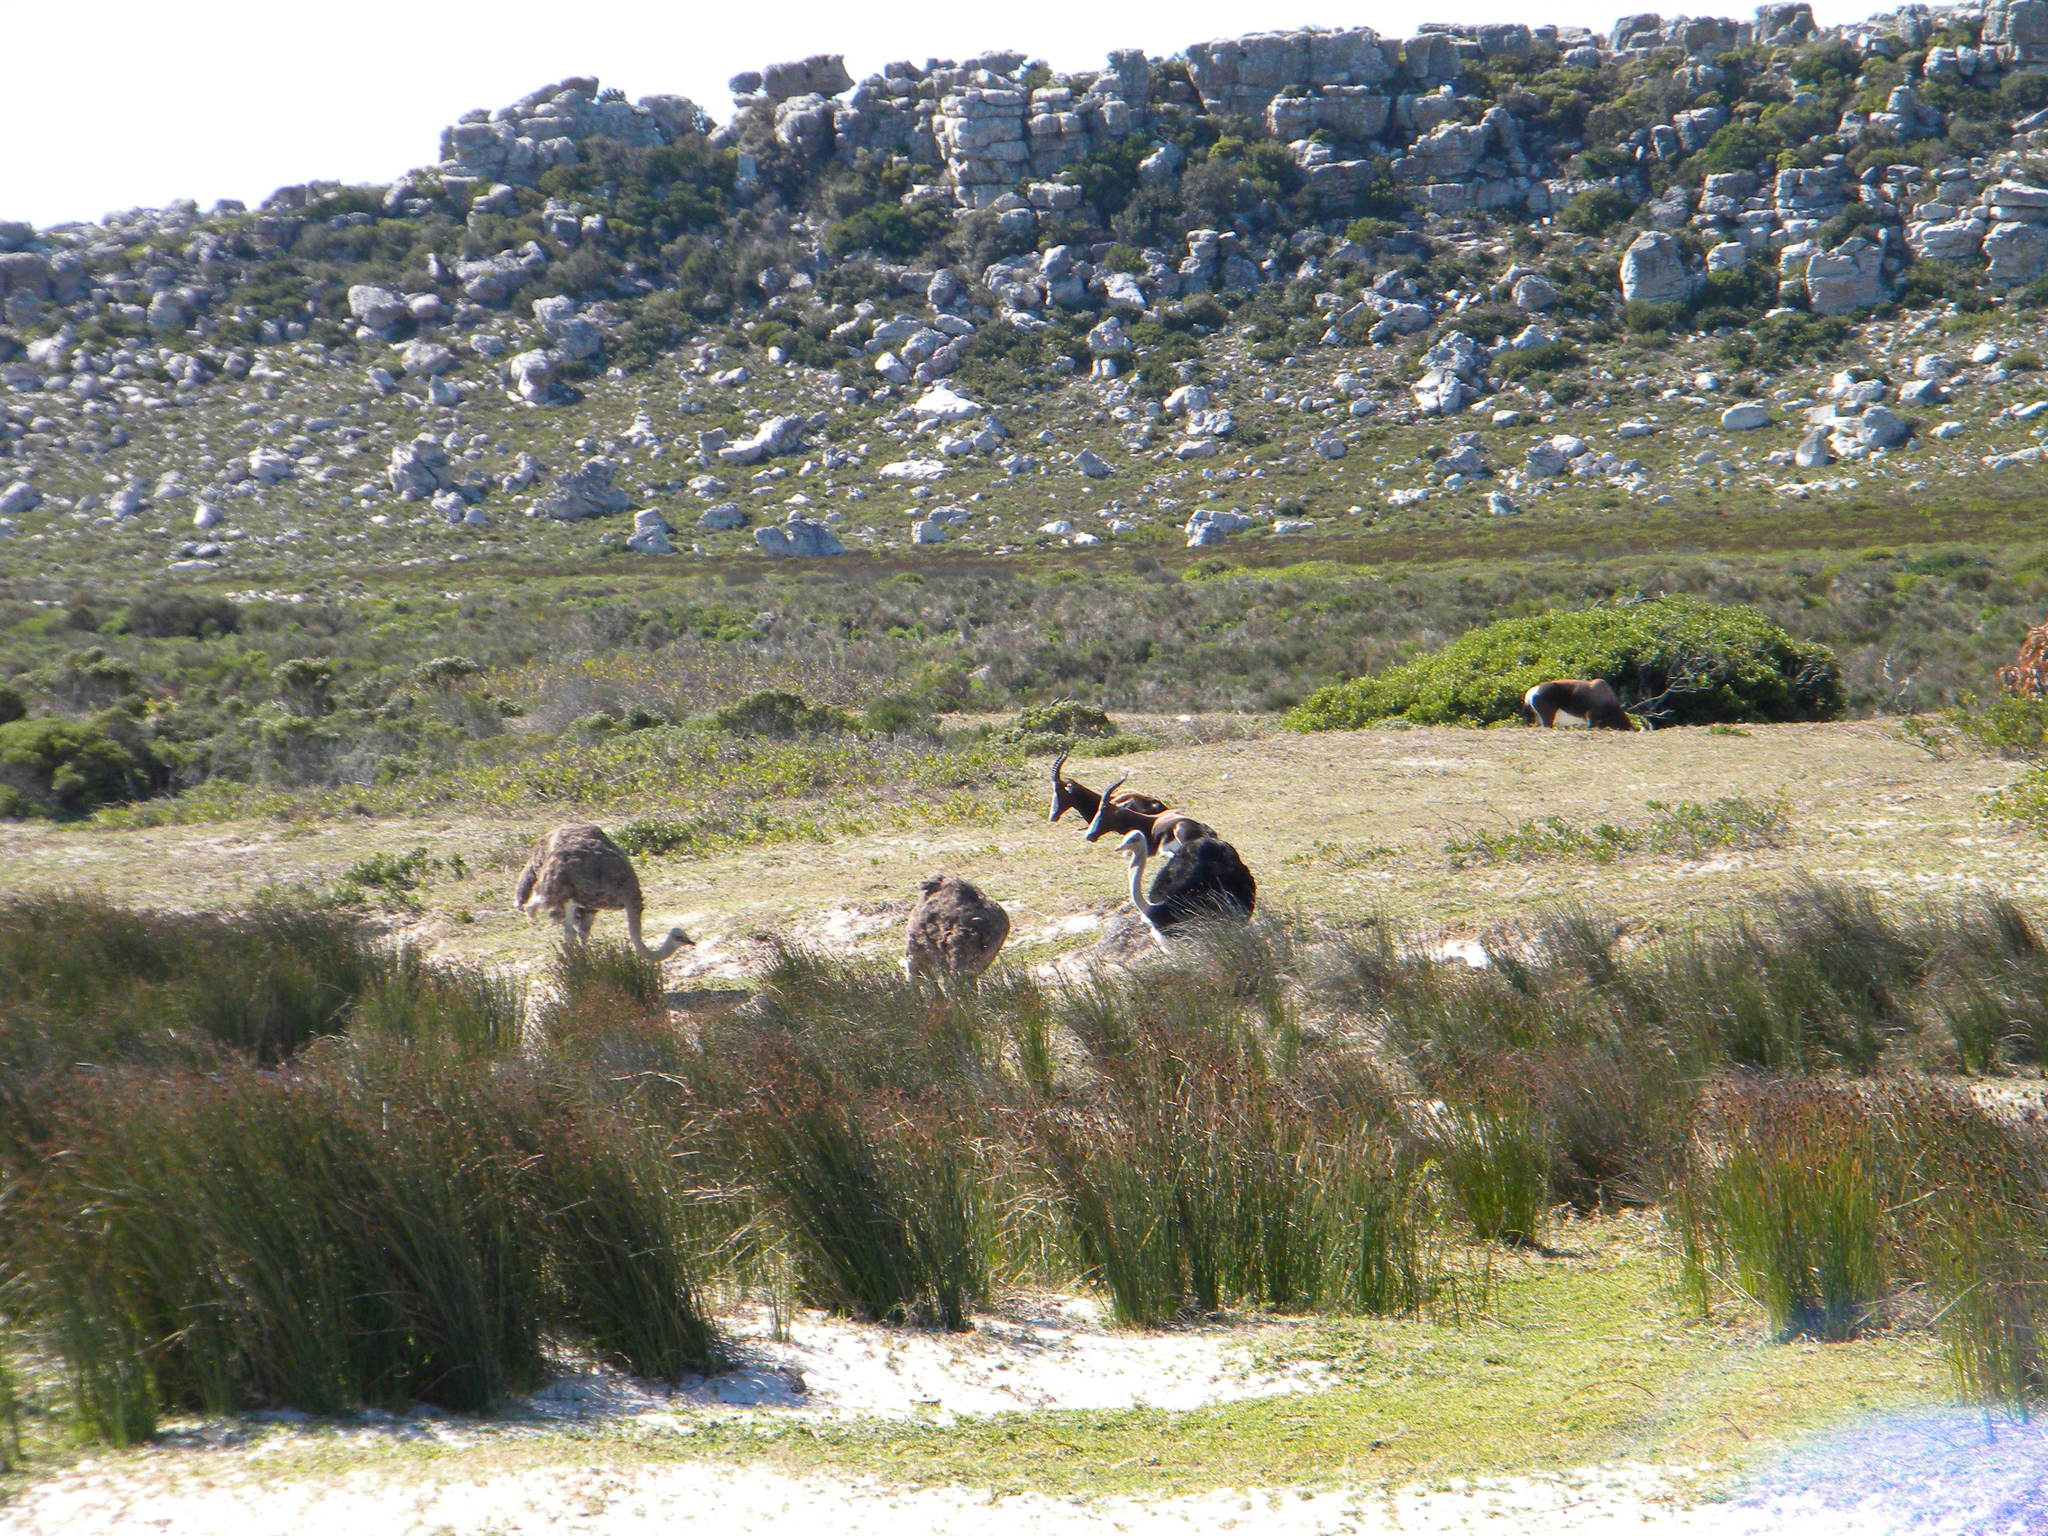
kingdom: Animalia
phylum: Chordata
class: Mammalia
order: Artiodactyla
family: Bovidae
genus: Damaliscus
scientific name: Damaliscus pygargus
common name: Bontebok
